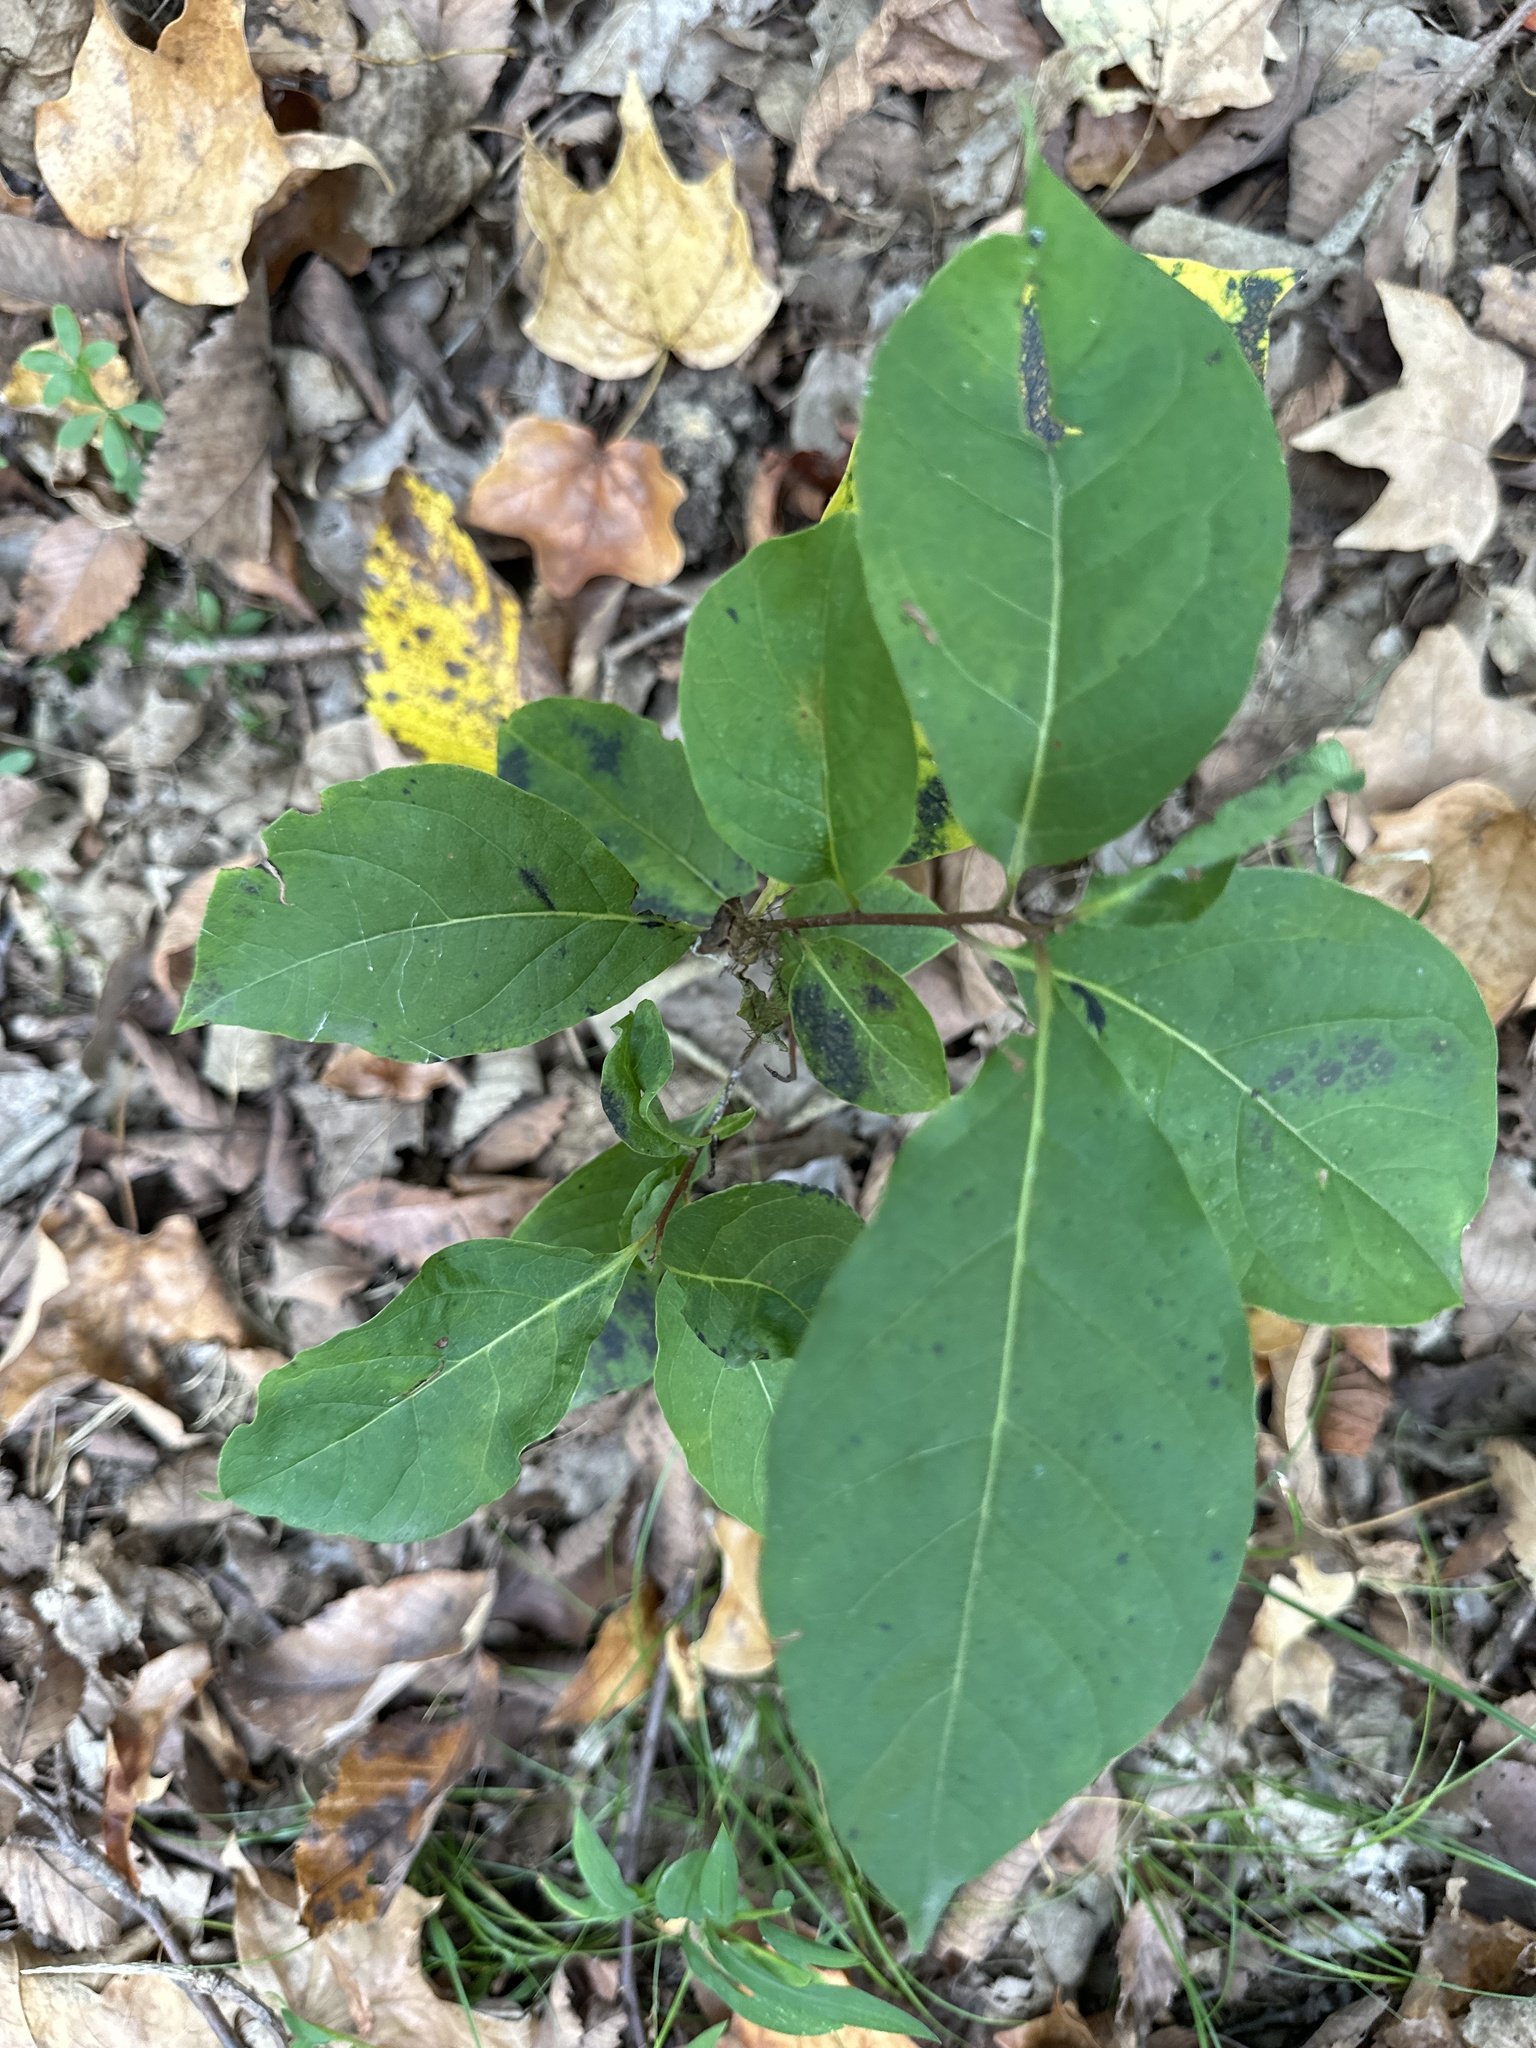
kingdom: Plantae
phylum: Tracheophyta
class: Magnoliopsida
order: Ericales
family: Ebenaceae
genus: Diospyros
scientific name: Diospyros virginiana
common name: Persimmon
